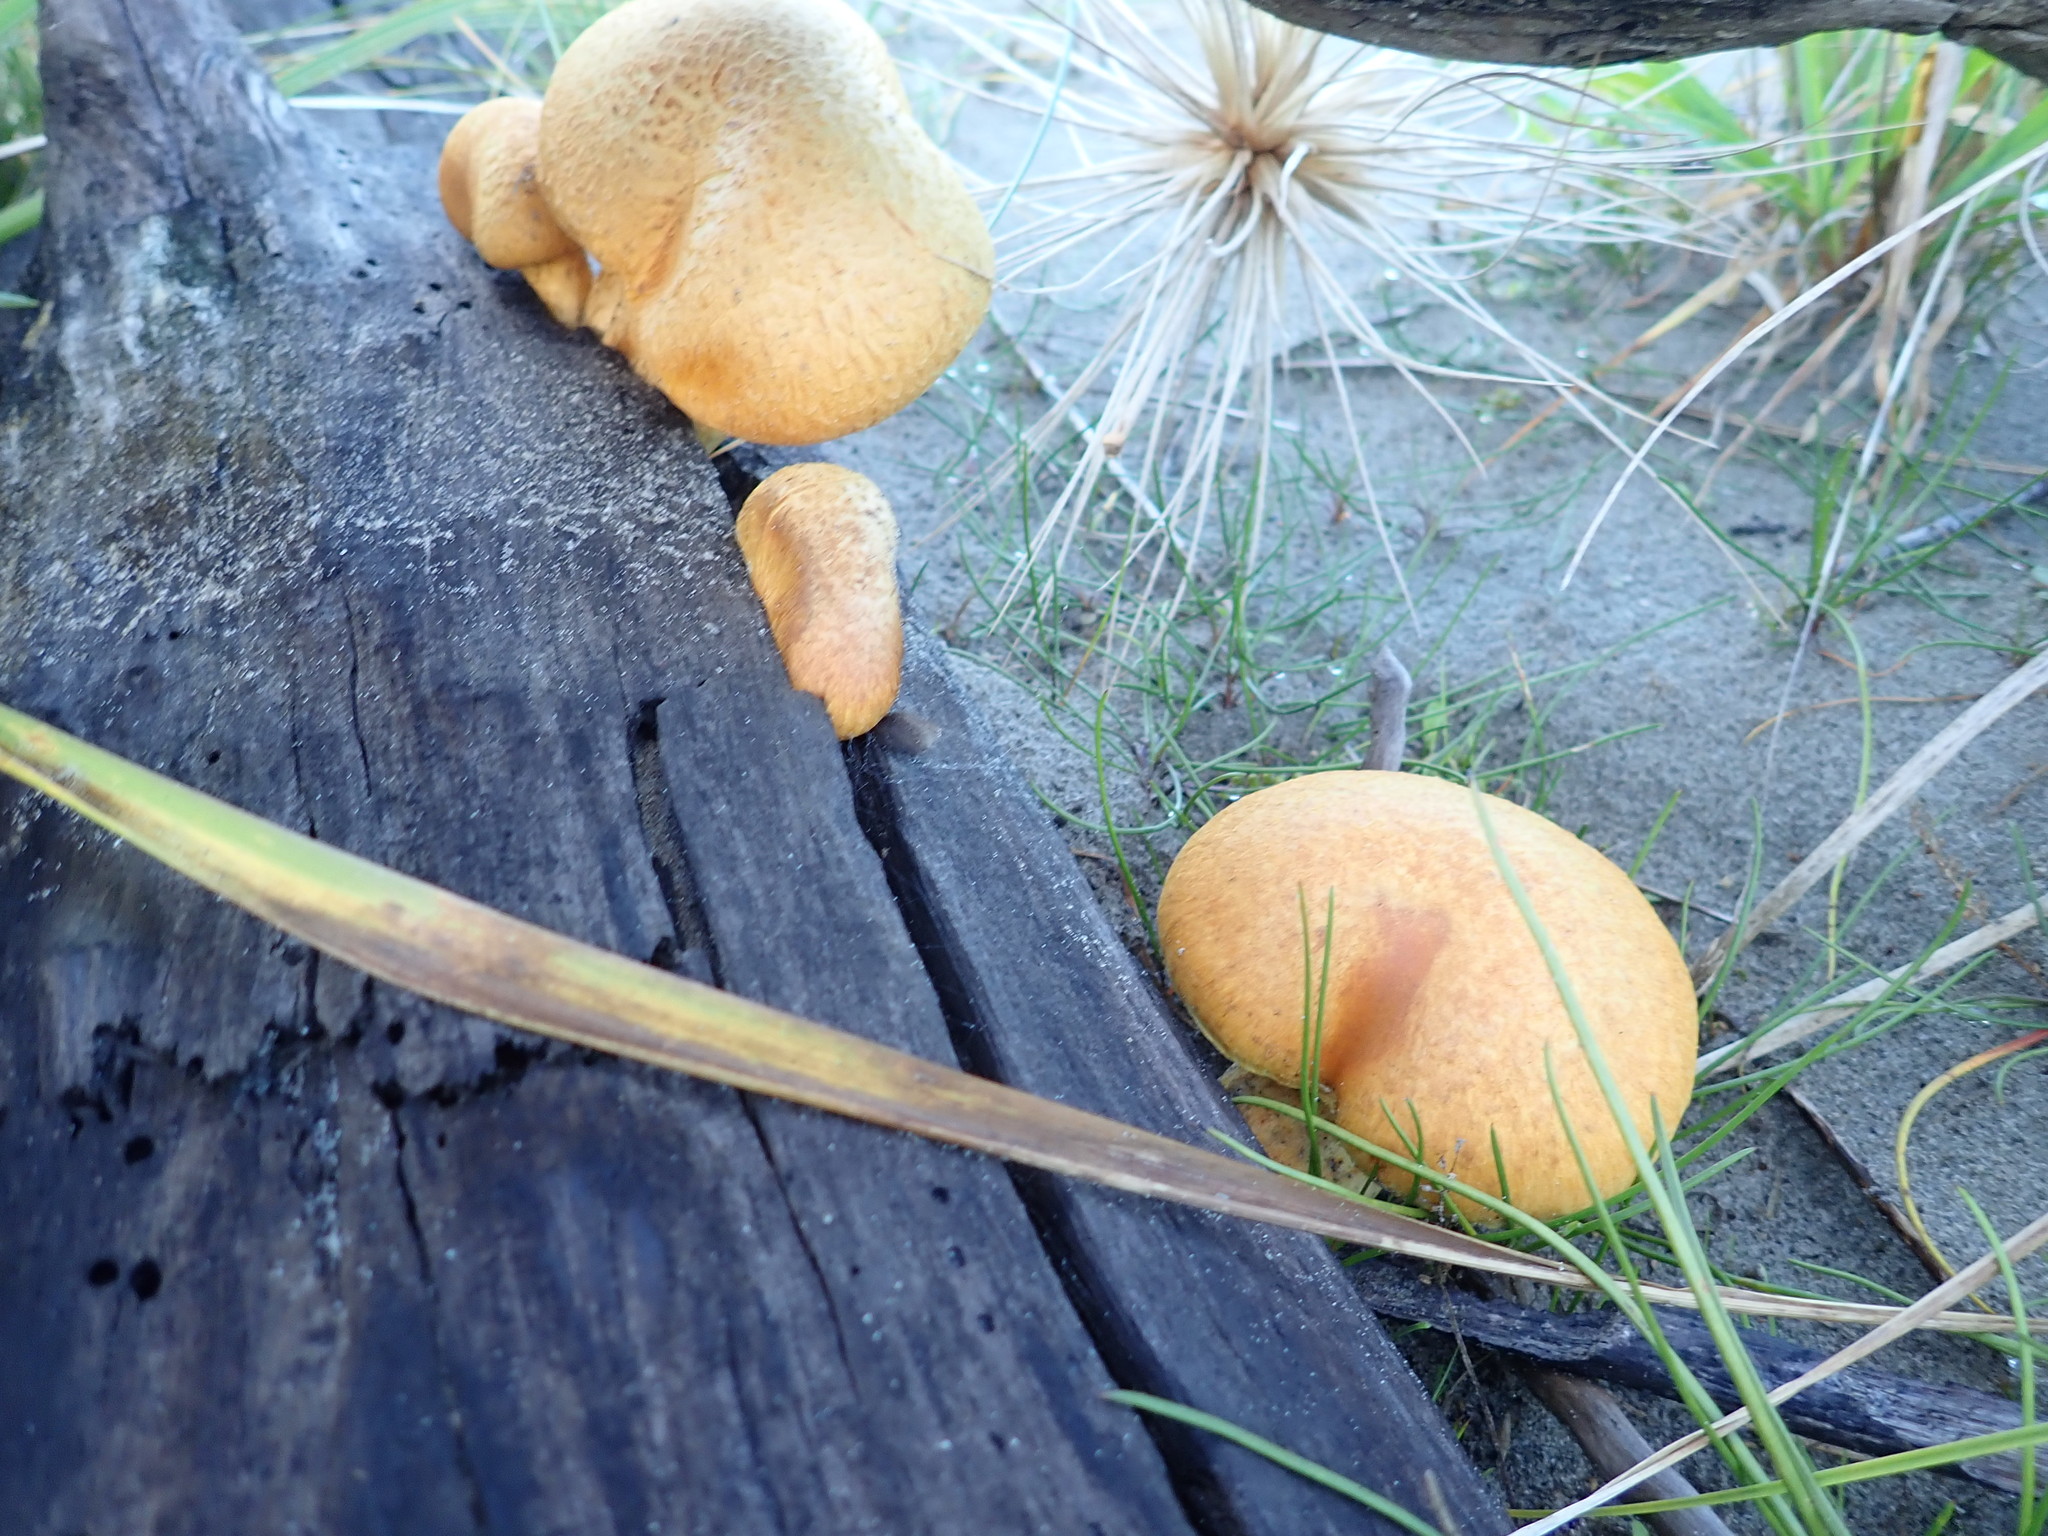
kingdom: Fungi
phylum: Basidiomycota
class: Agaricomycetes
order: Agaricales
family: Hymenogastraceae
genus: Gymnopilus
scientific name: Gymnopilus junonius
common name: Spectacular rustgill
